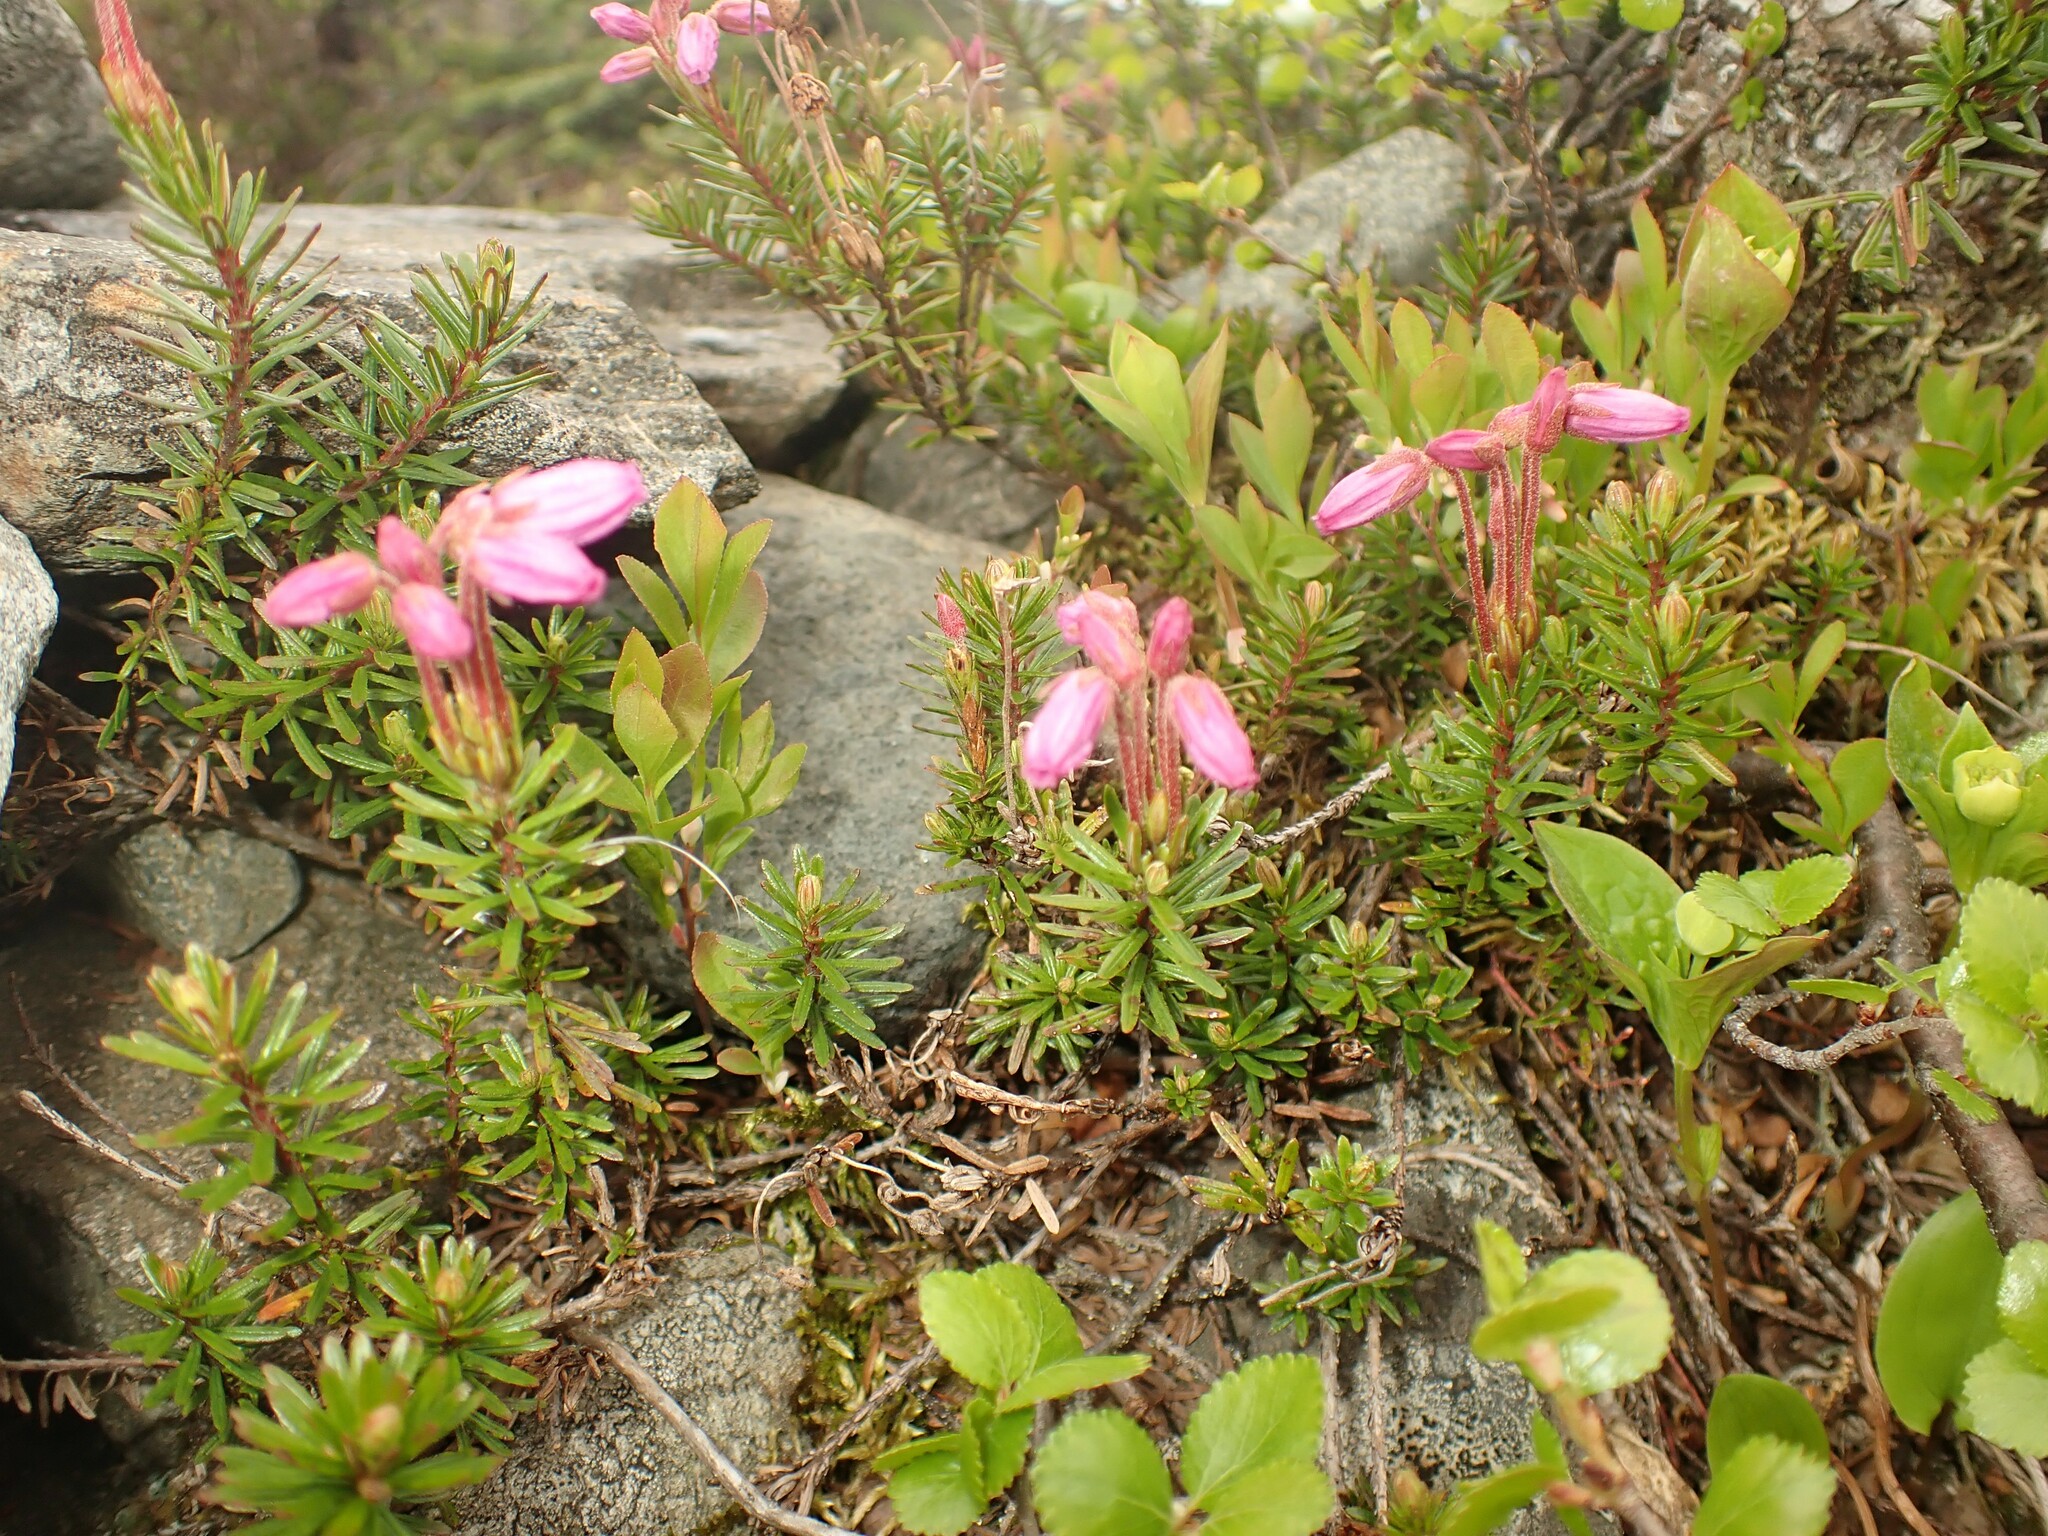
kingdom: Plantae
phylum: Tracheophyta
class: Magnoliopsida
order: Ericales
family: Ericaceae
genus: Phyllodoce
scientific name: Phyllodoce caerulea
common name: Blue heath
